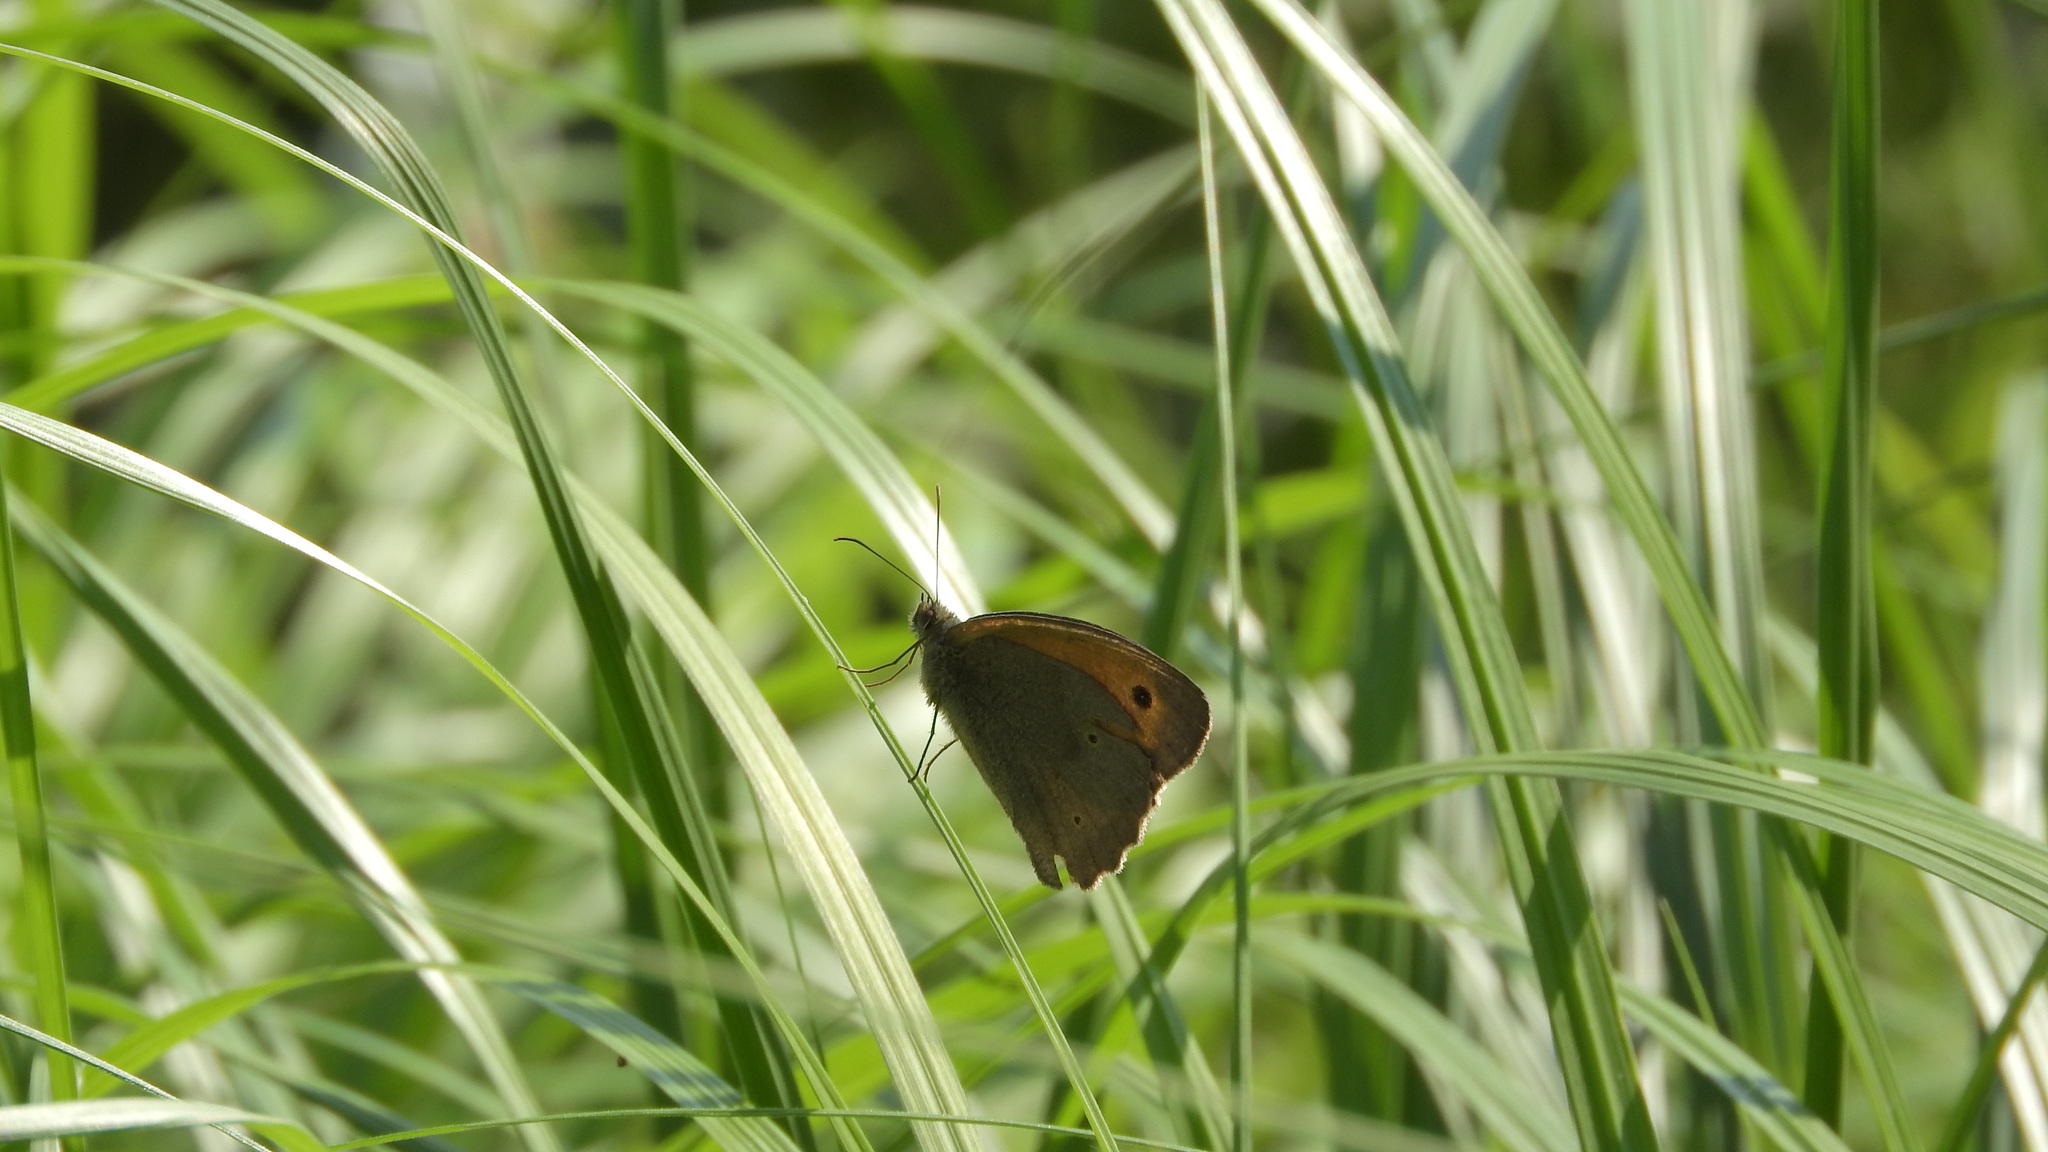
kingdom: Animalia
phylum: Arthropoda
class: Insecta
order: Lepidoptera
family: Nymphalidae
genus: Maniola
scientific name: Maniola jurtina
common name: Meadow brown
